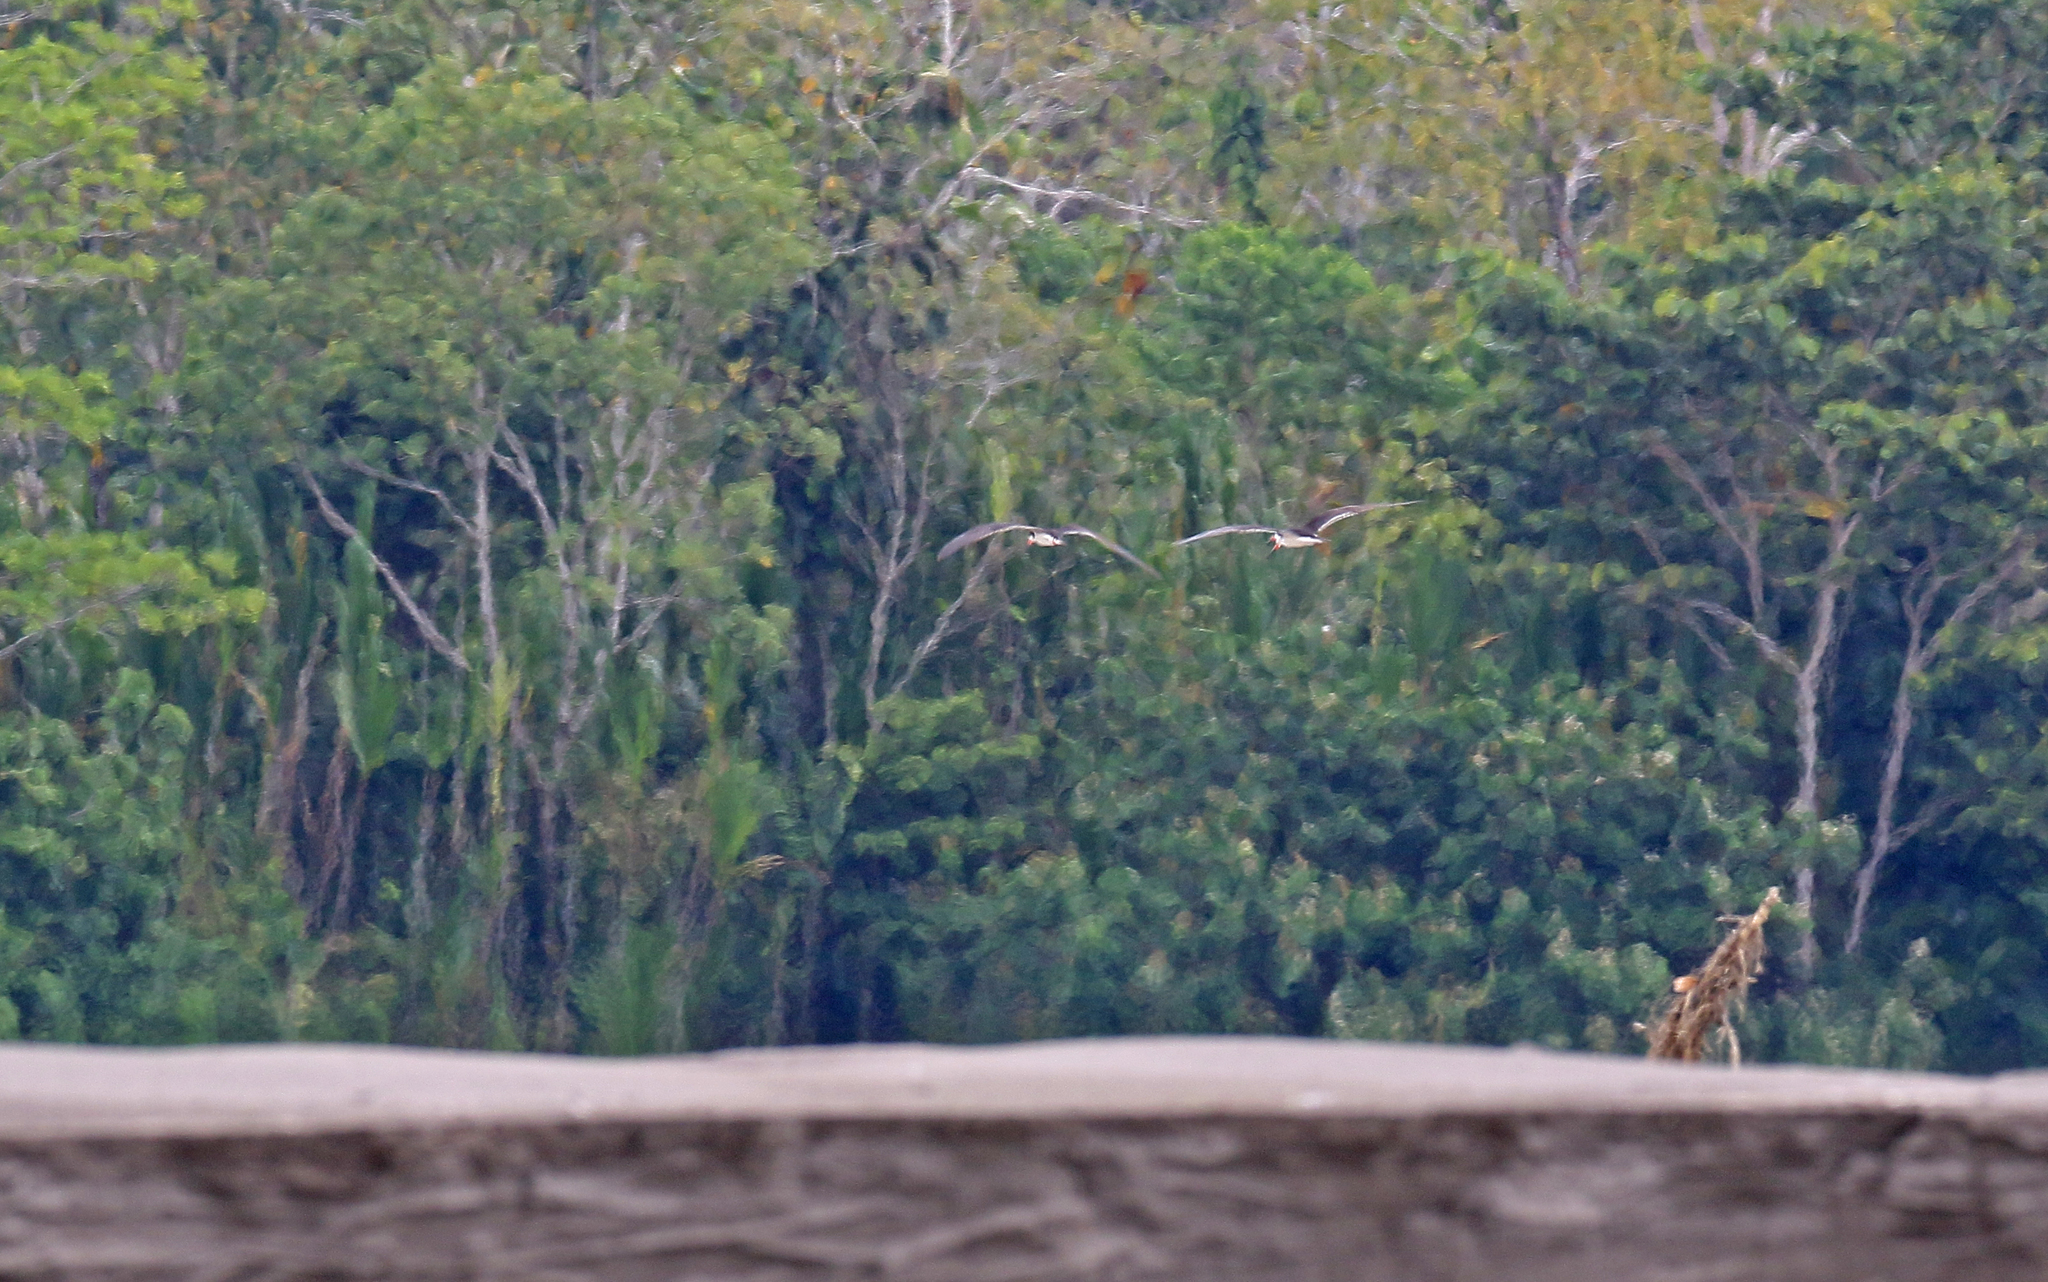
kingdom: Animalia
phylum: Chordata
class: Aves
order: Charadriiformes
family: Laridae
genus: Rynchops
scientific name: Rynchops niger
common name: Black skimmer
